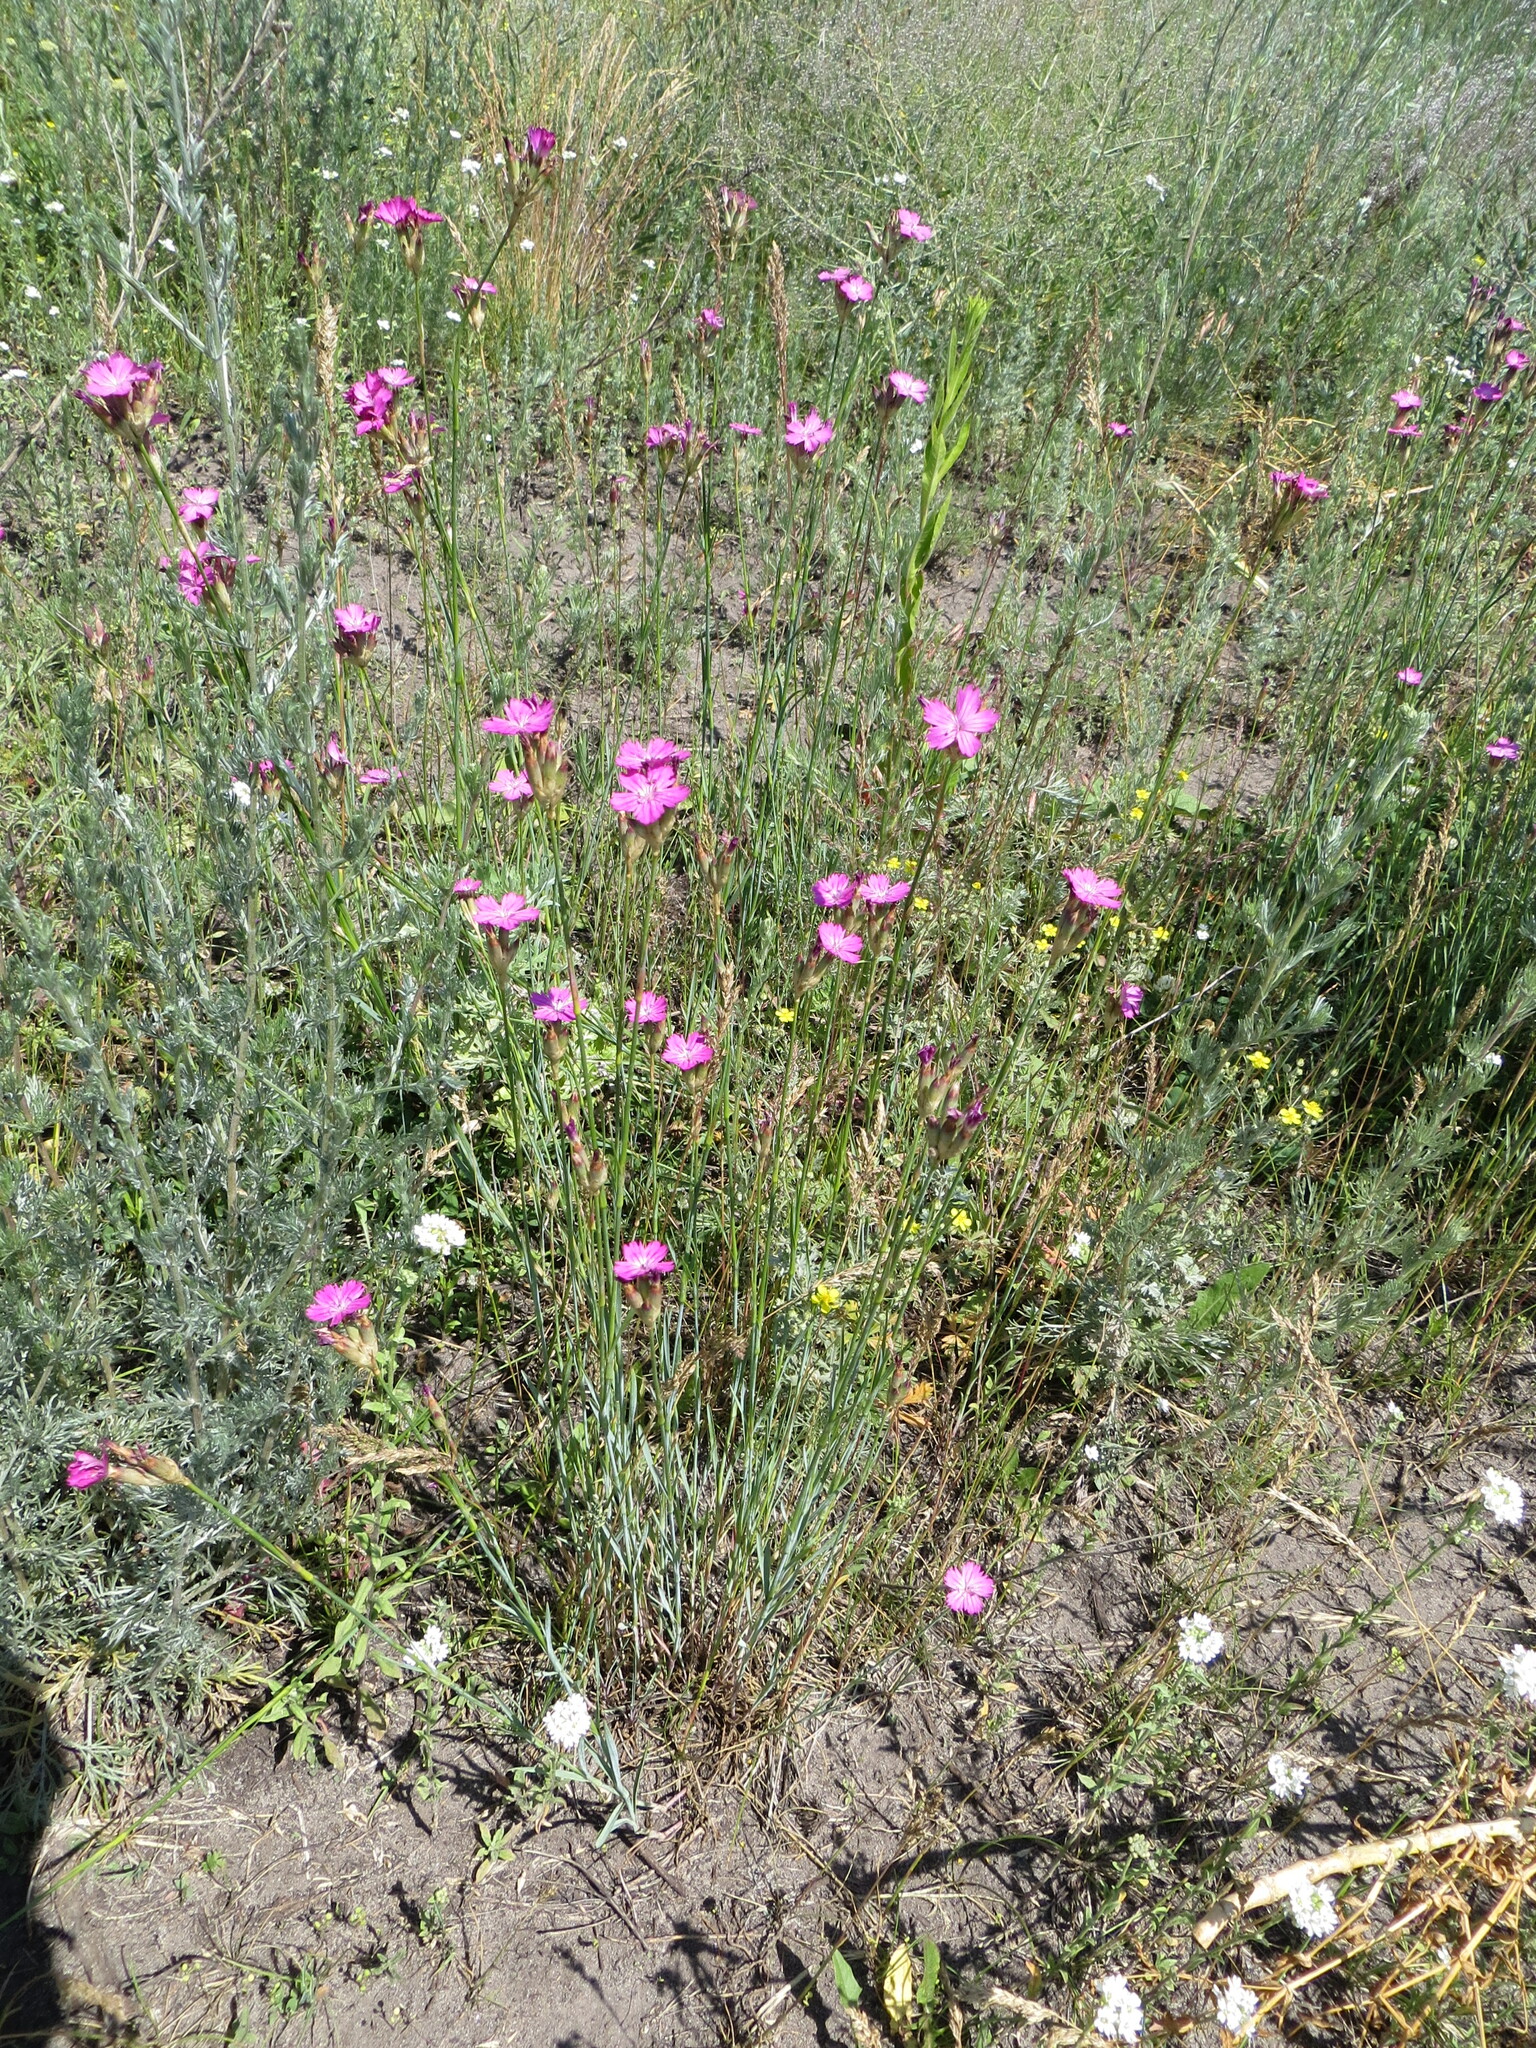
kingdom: Plantae
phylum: Tracheophyta
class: Magnoliopsida
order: Caryophyllales
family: Caryophyllaceae
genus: Dianthus
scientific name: Dianthus borbasii
